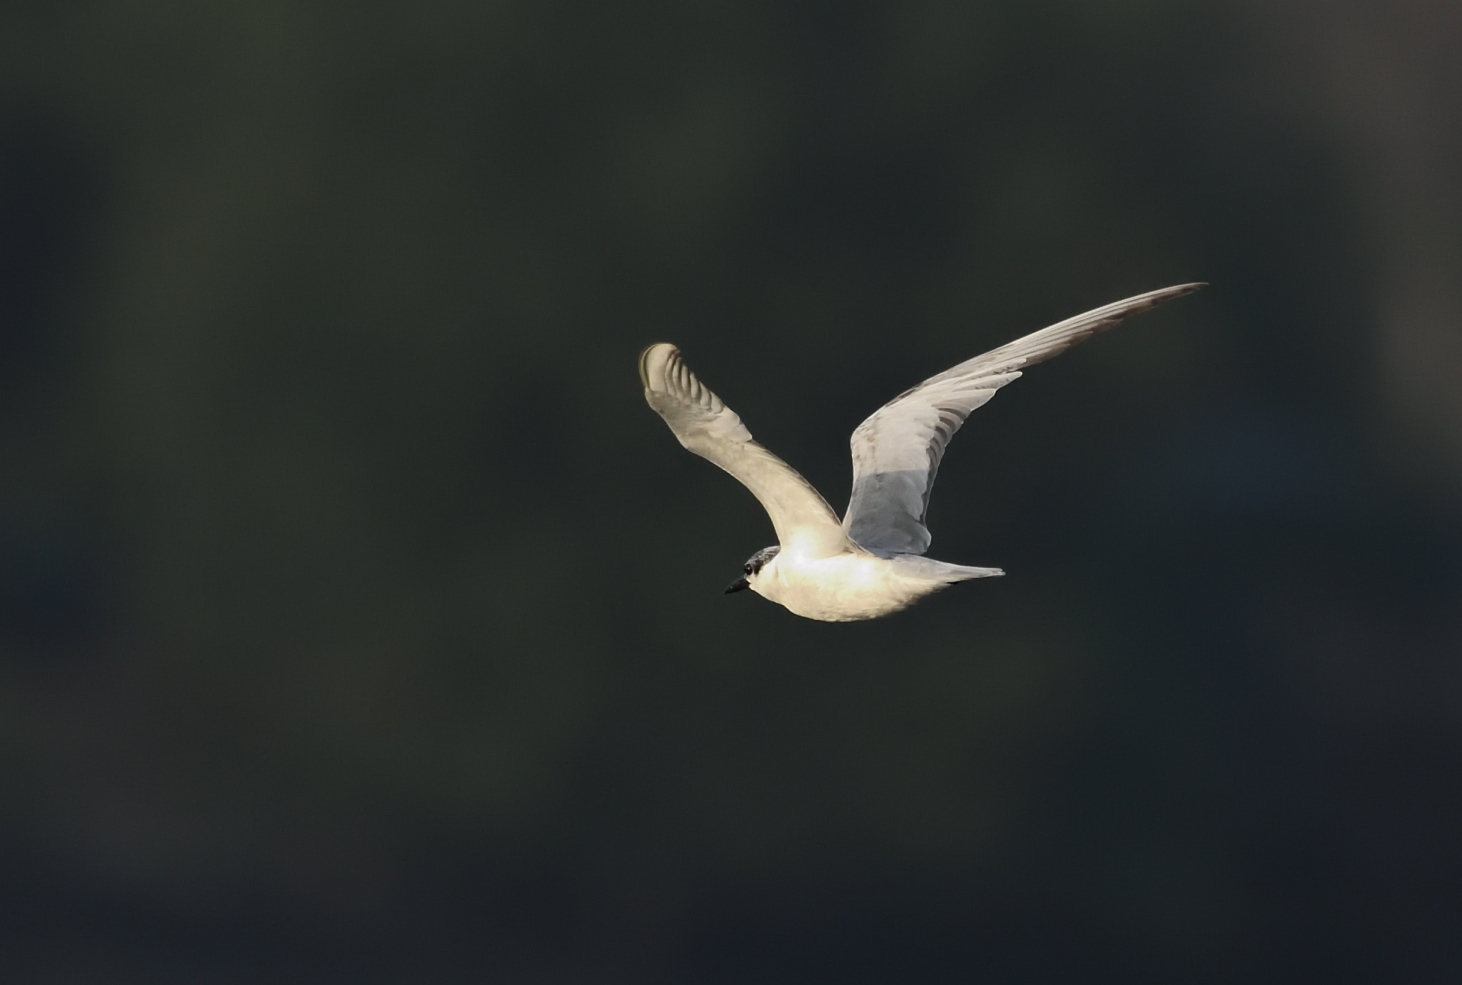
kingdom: Animalia
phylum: Chordata
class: Aves
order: Charadriiformes
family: Laridae
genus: Chlidonias
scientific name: Chlidonias hybrida
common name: Whiskered tern
